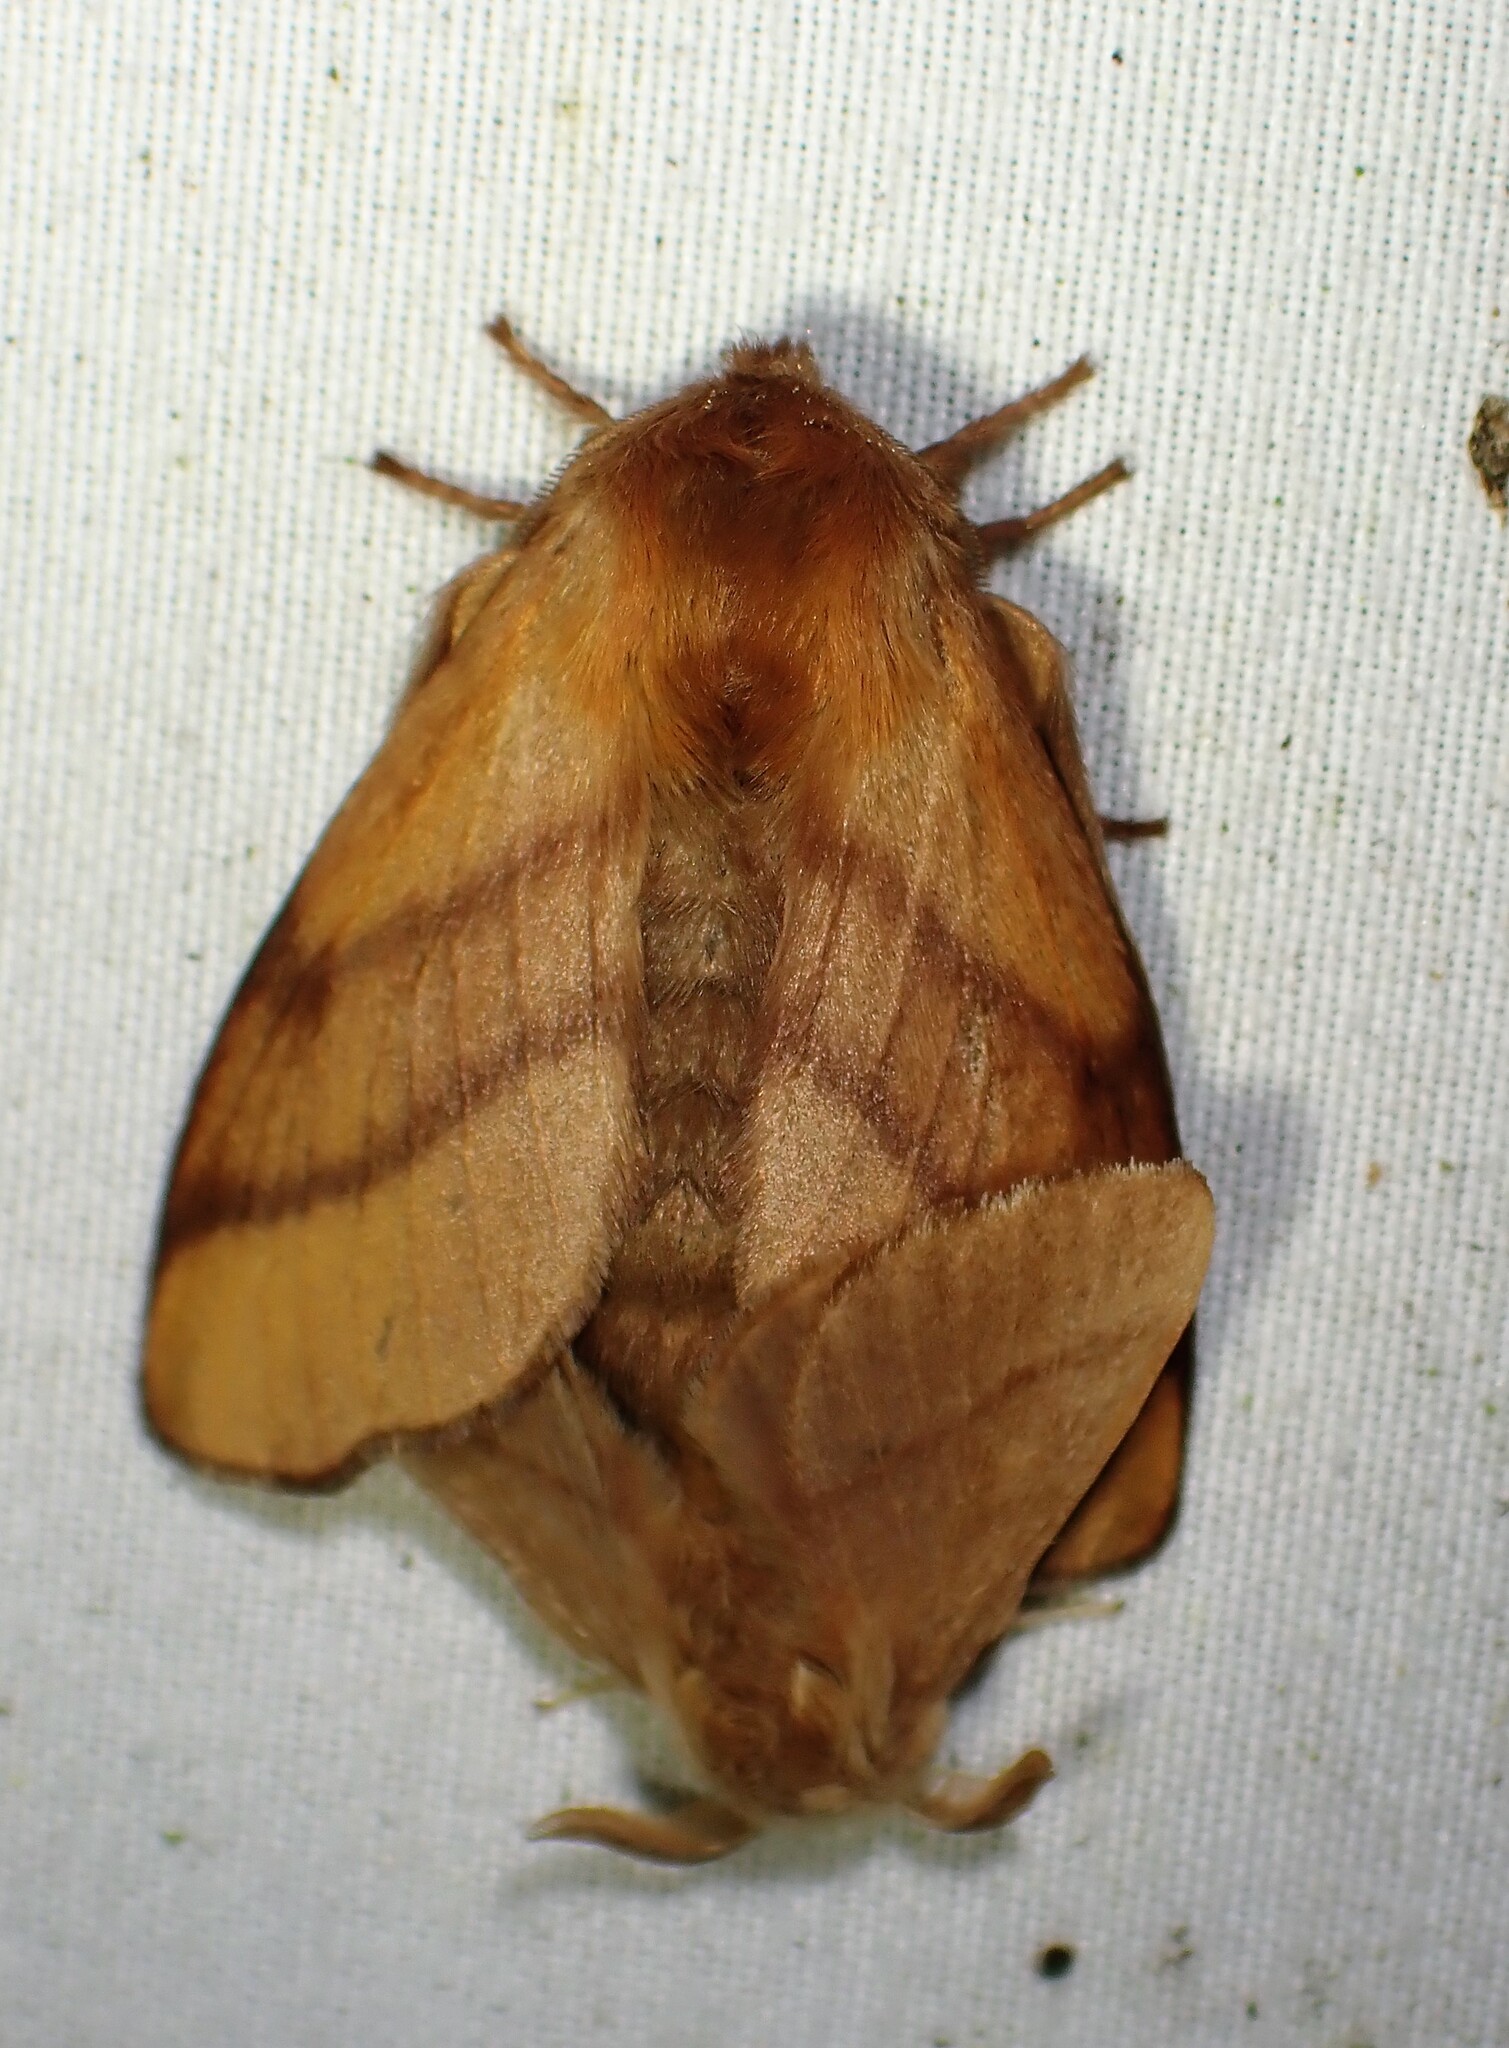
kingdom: Animalia
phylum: Arthropoda
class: Insecta
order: Lepidoptera
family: Lasiocampidae
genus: Malacosoma
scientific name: Malacosoma disstria
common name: Forest tent caterpillar
